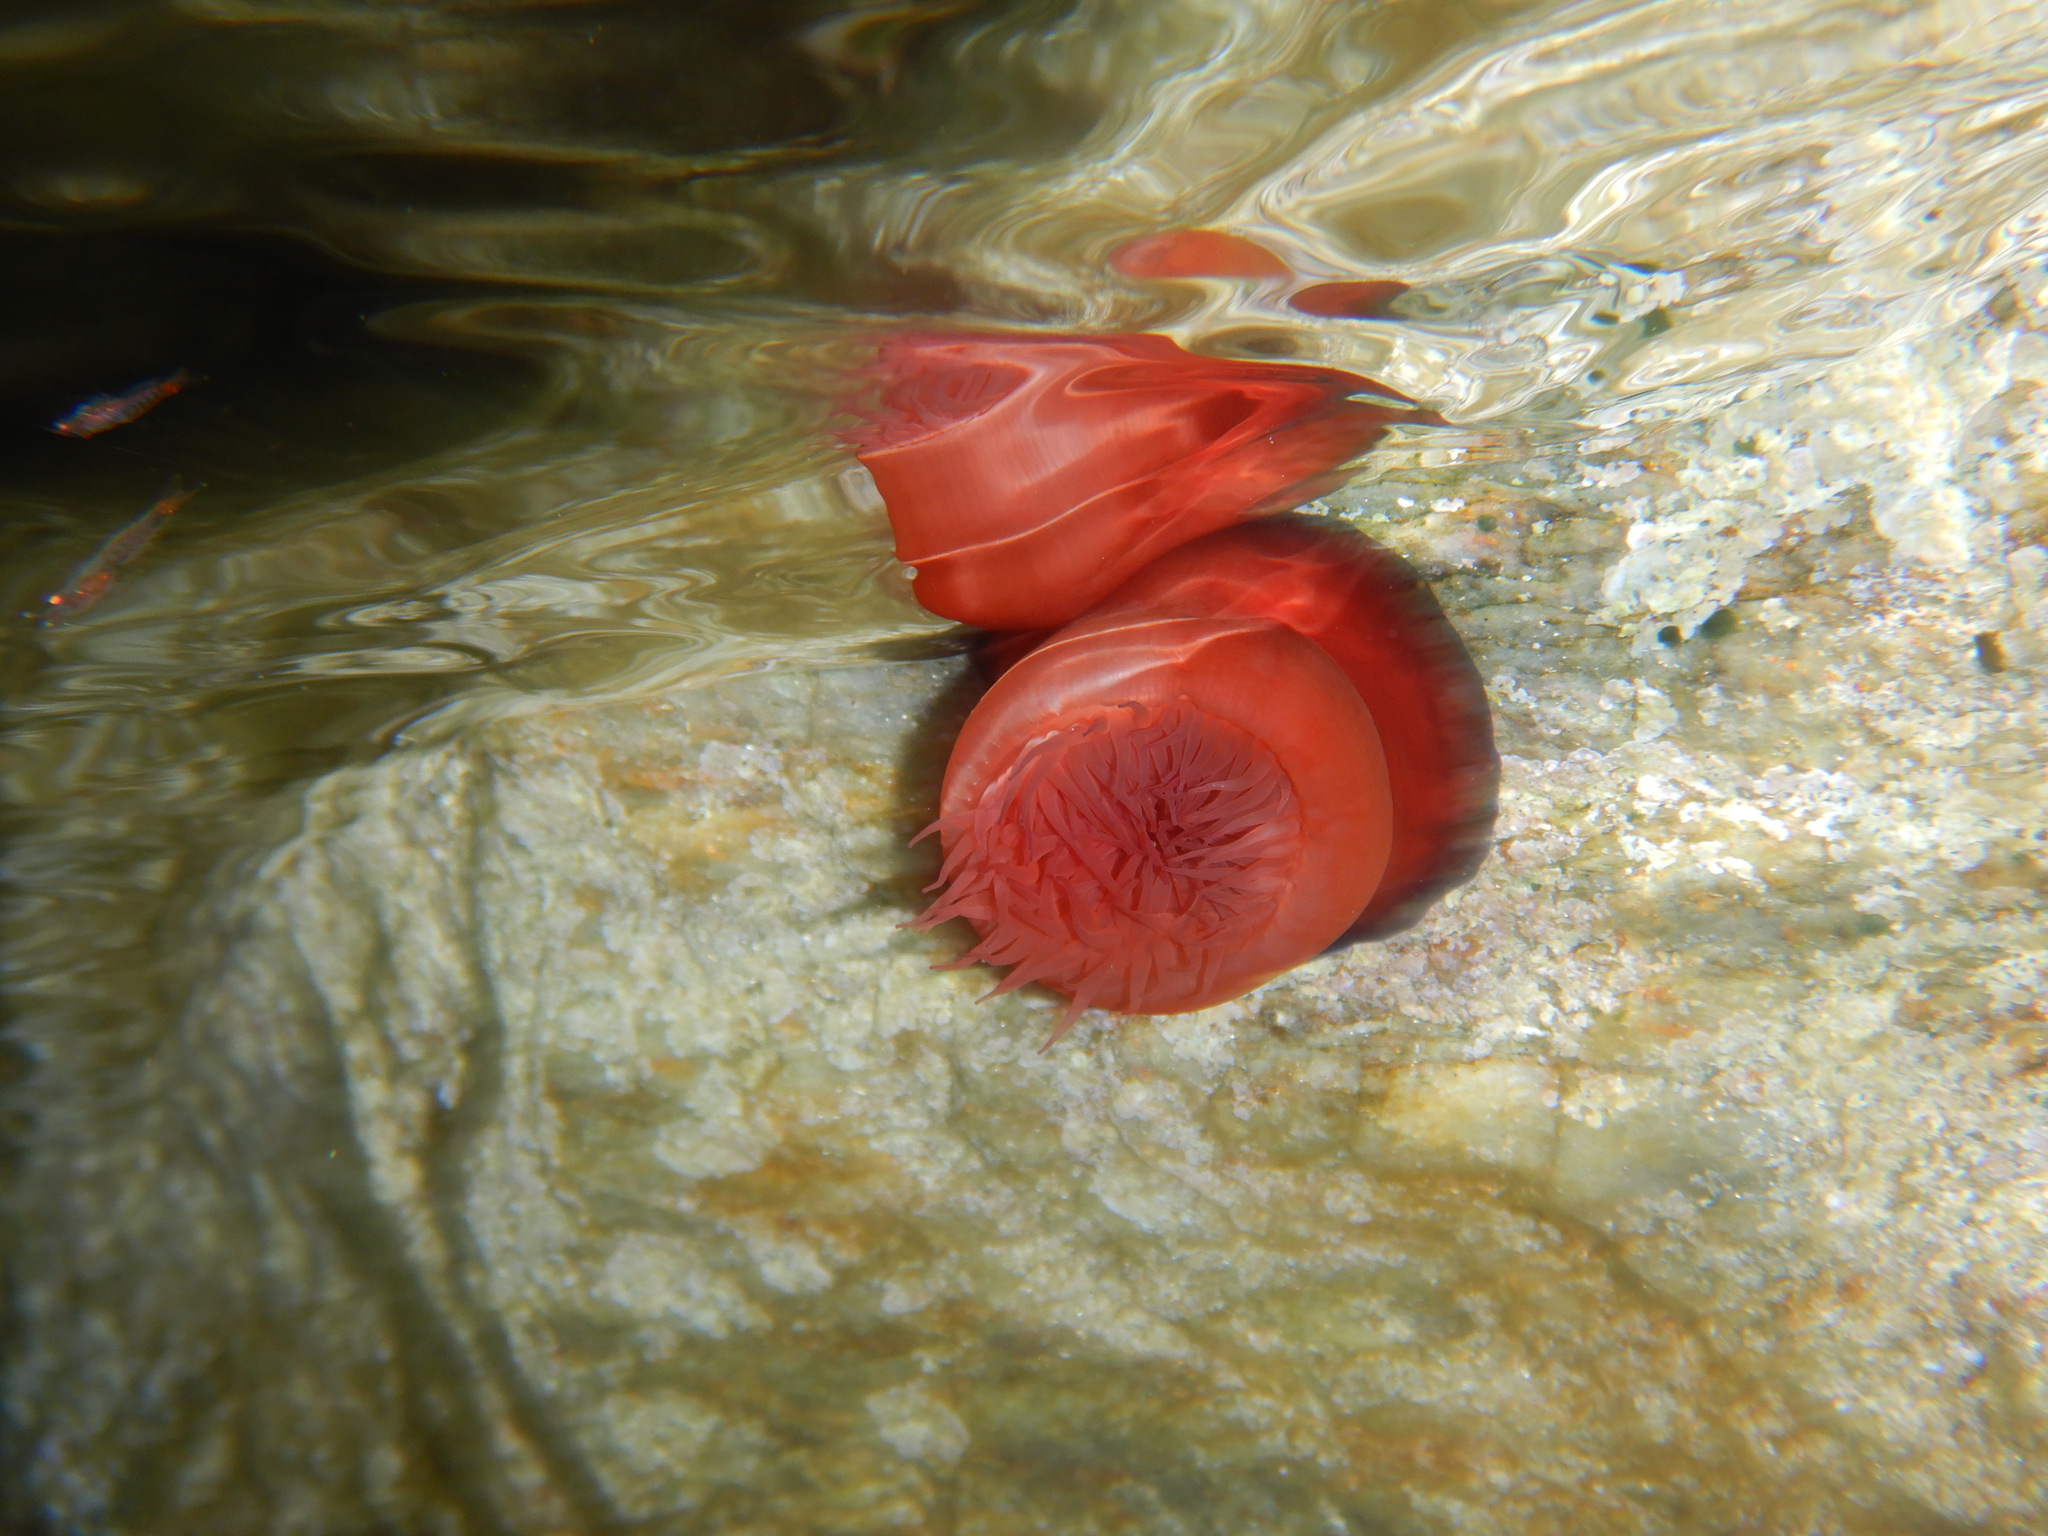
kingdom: Animalia
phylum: Cnidaria
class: Anthozoa
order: Actiniaria
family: Actiniidae
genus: Actinia
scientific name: Actinia mediterranea
